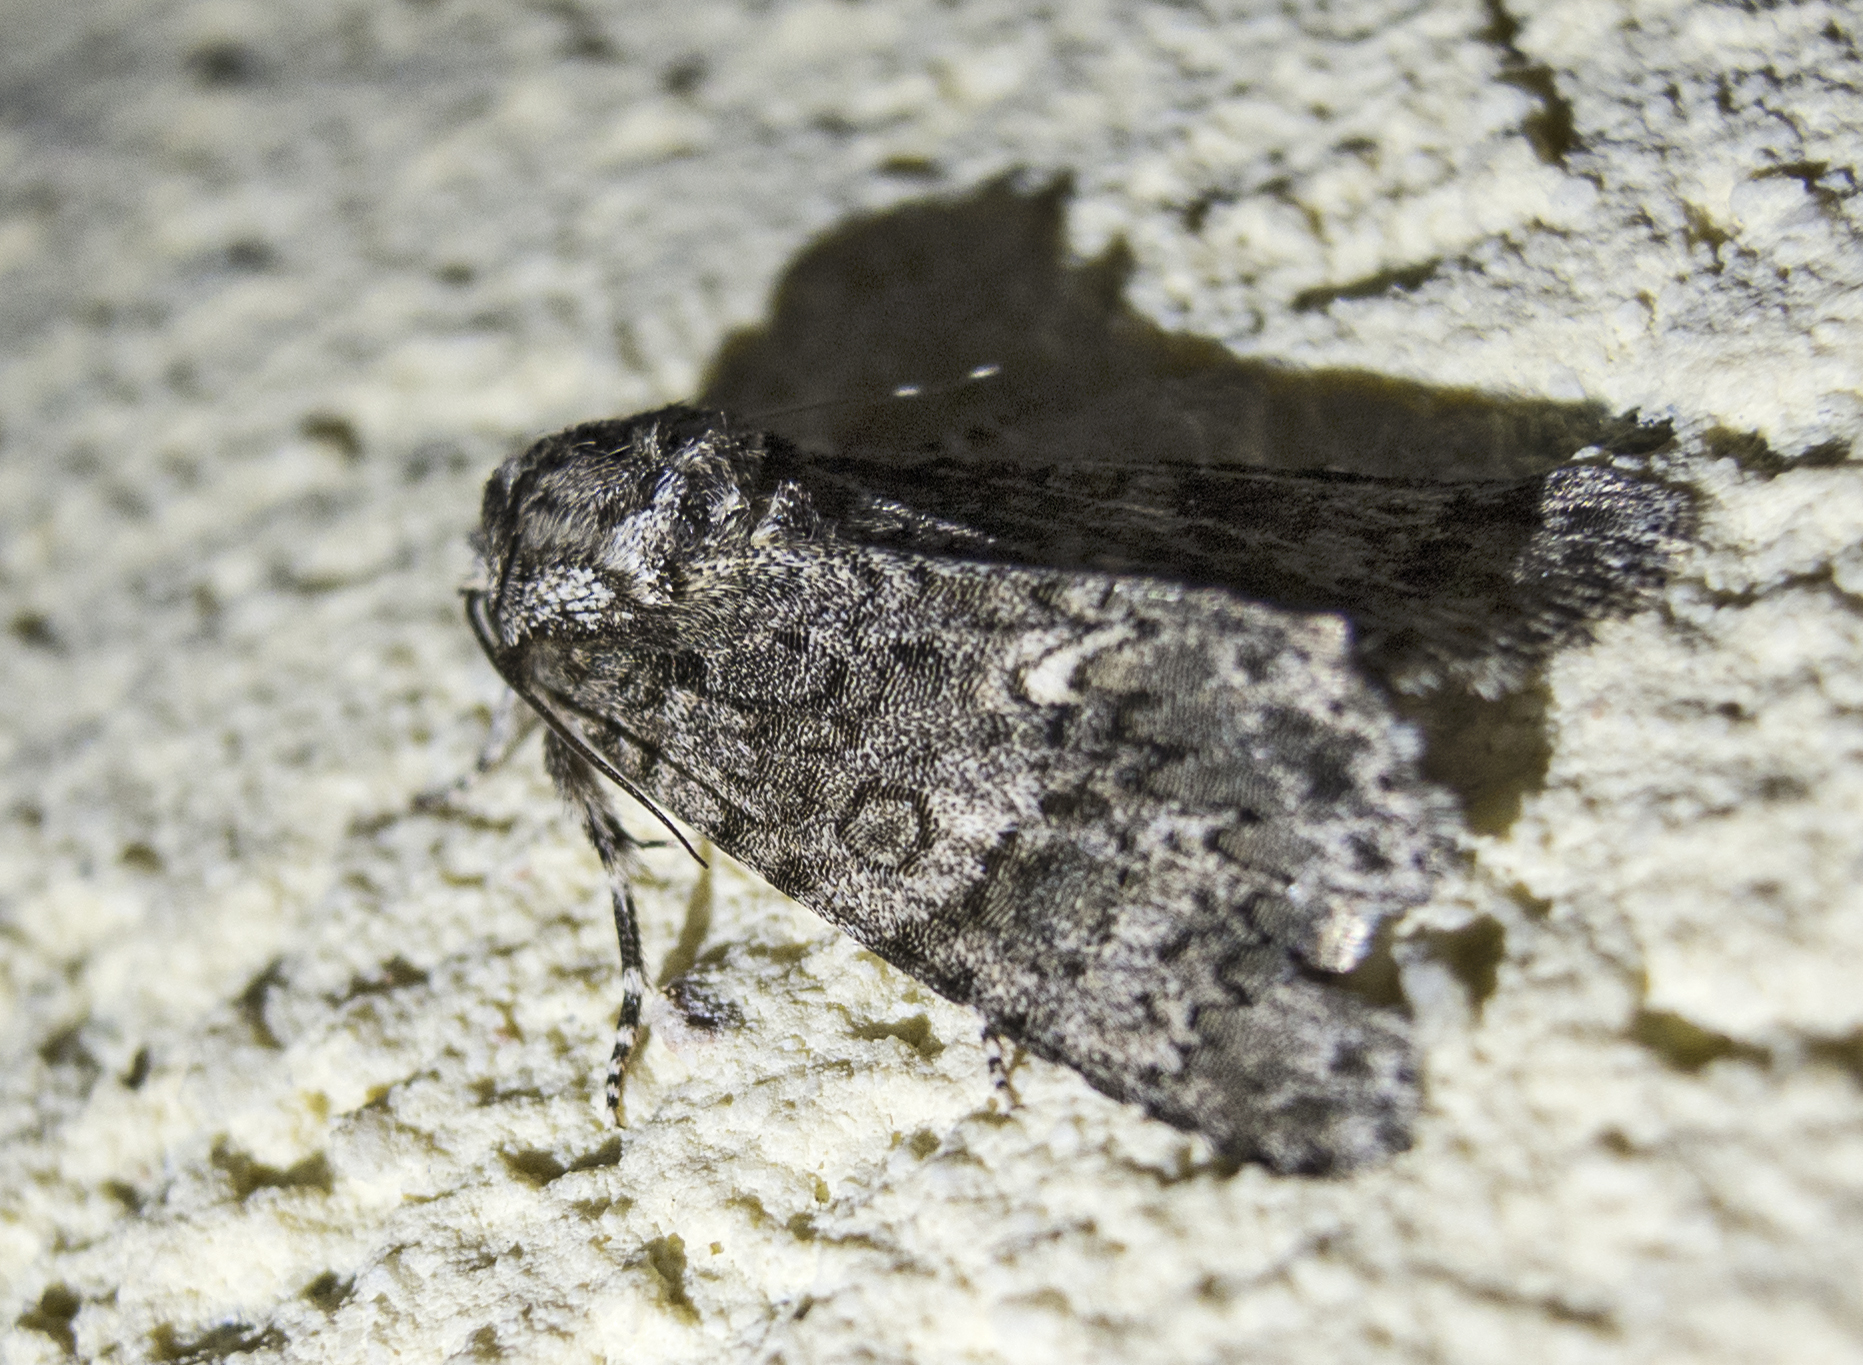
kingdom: Animalia
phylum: Arthropoda
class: Insecta
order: Lepidoptera
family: Noctuidae
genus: Acronicta
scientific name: Acronicta rumicis
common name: Knot grass
